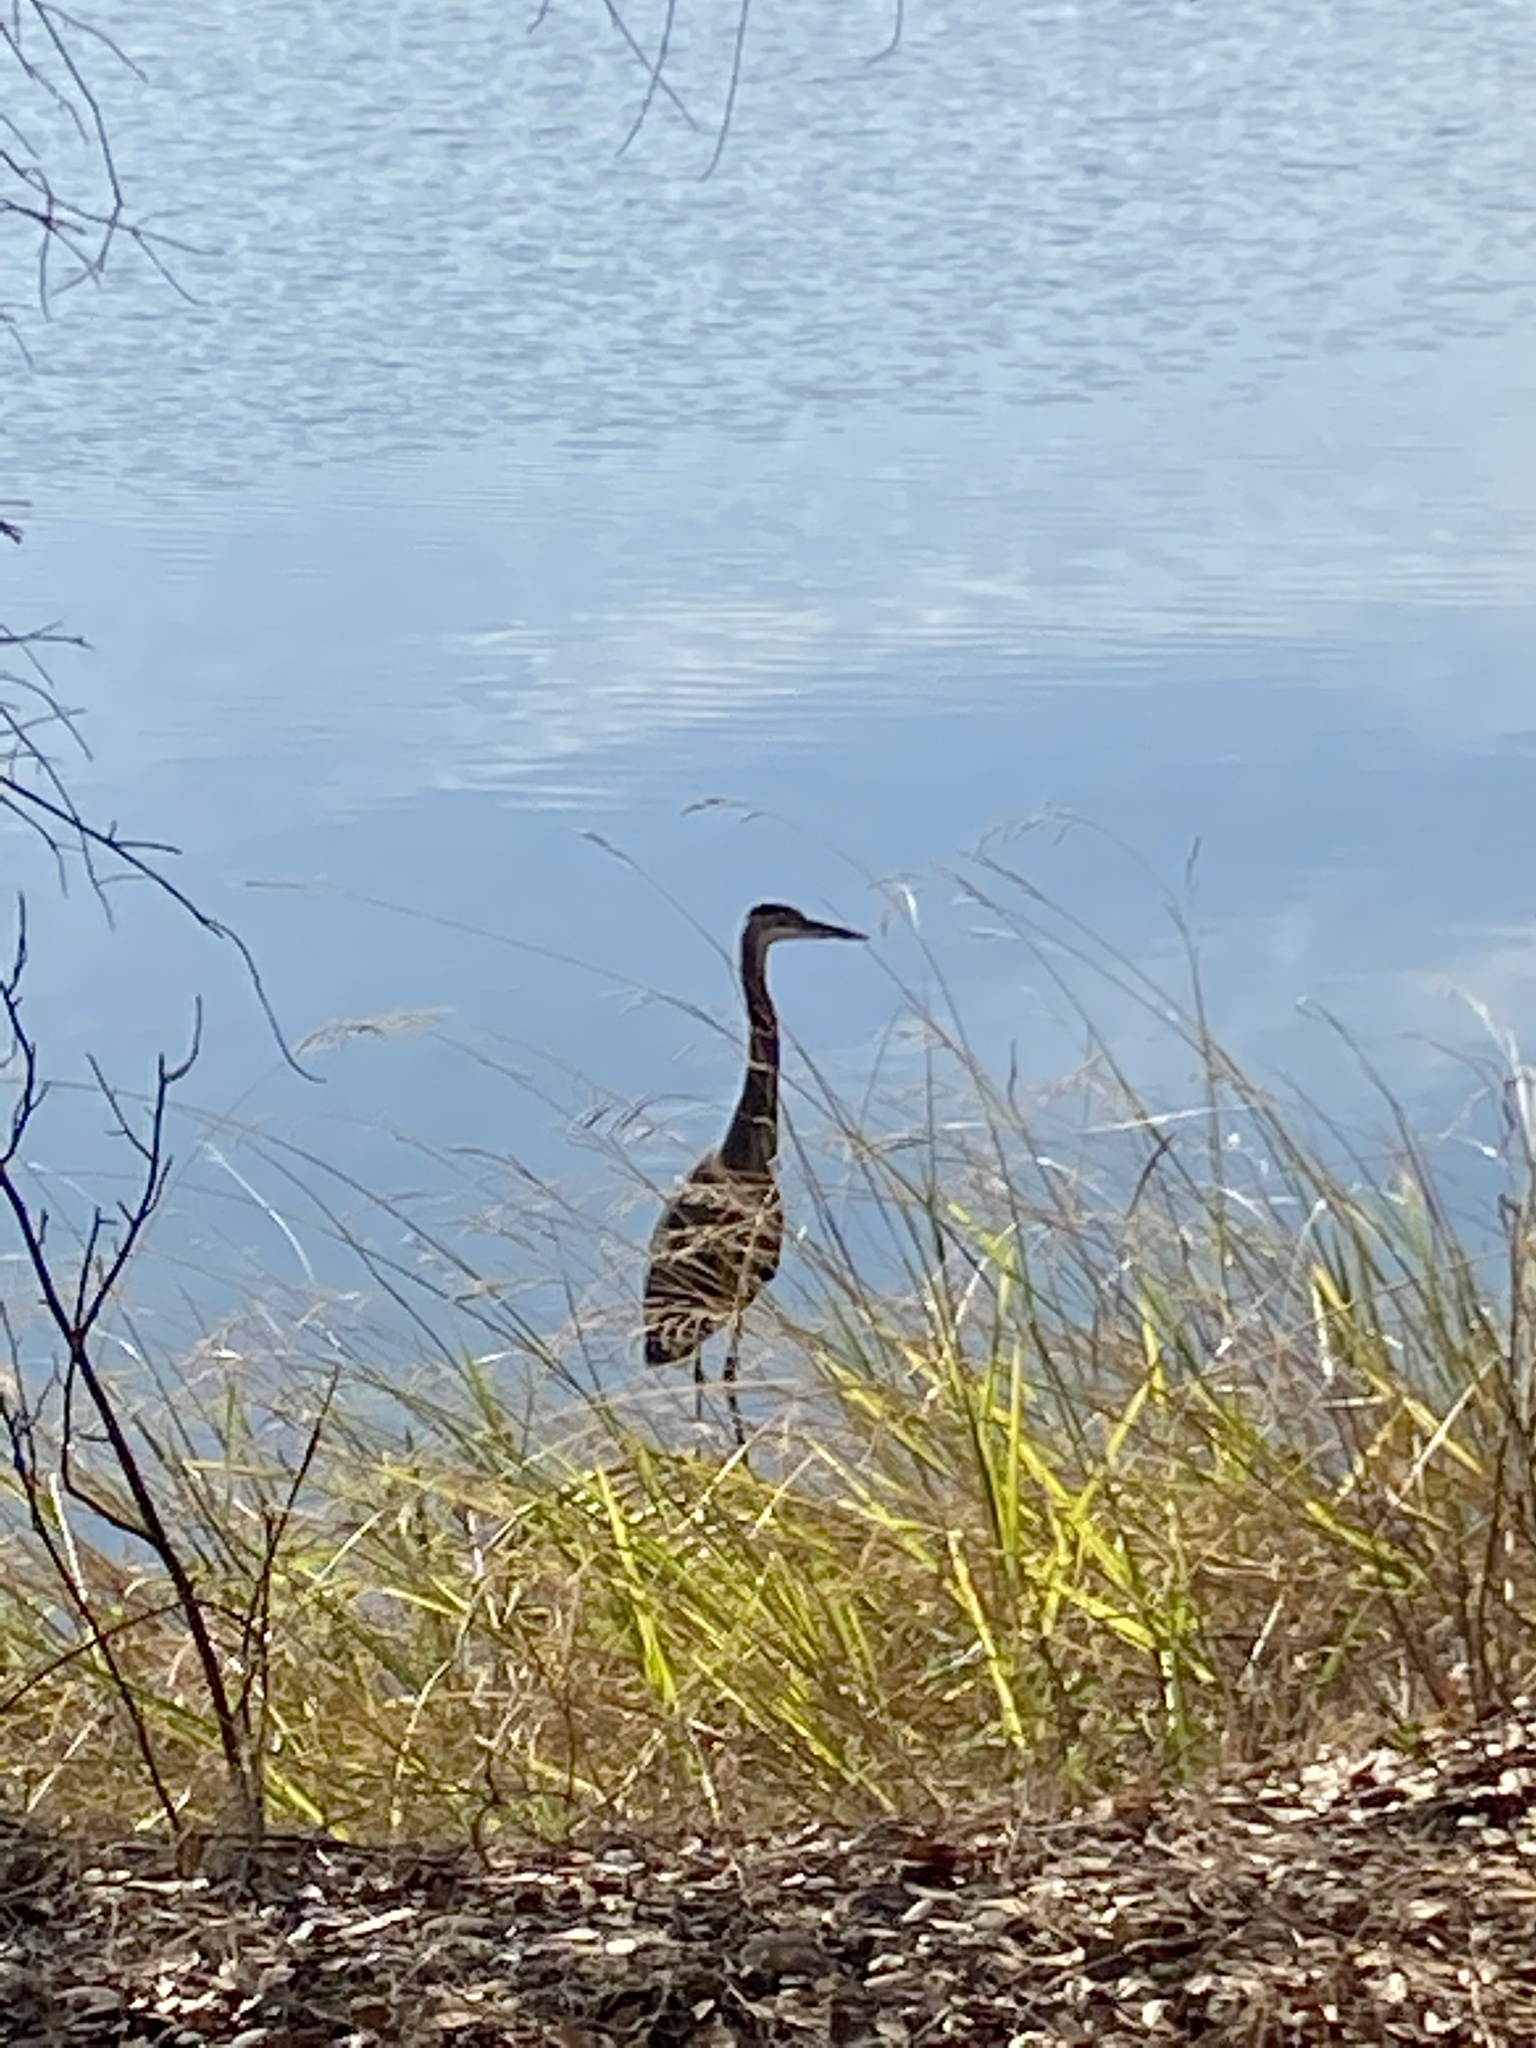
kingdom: Animalia
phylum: Chordata
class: Aves
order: Pelecaniformes
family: Ardeidae
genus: Ardea
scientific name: Ardea herodias
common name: Great blue heron
